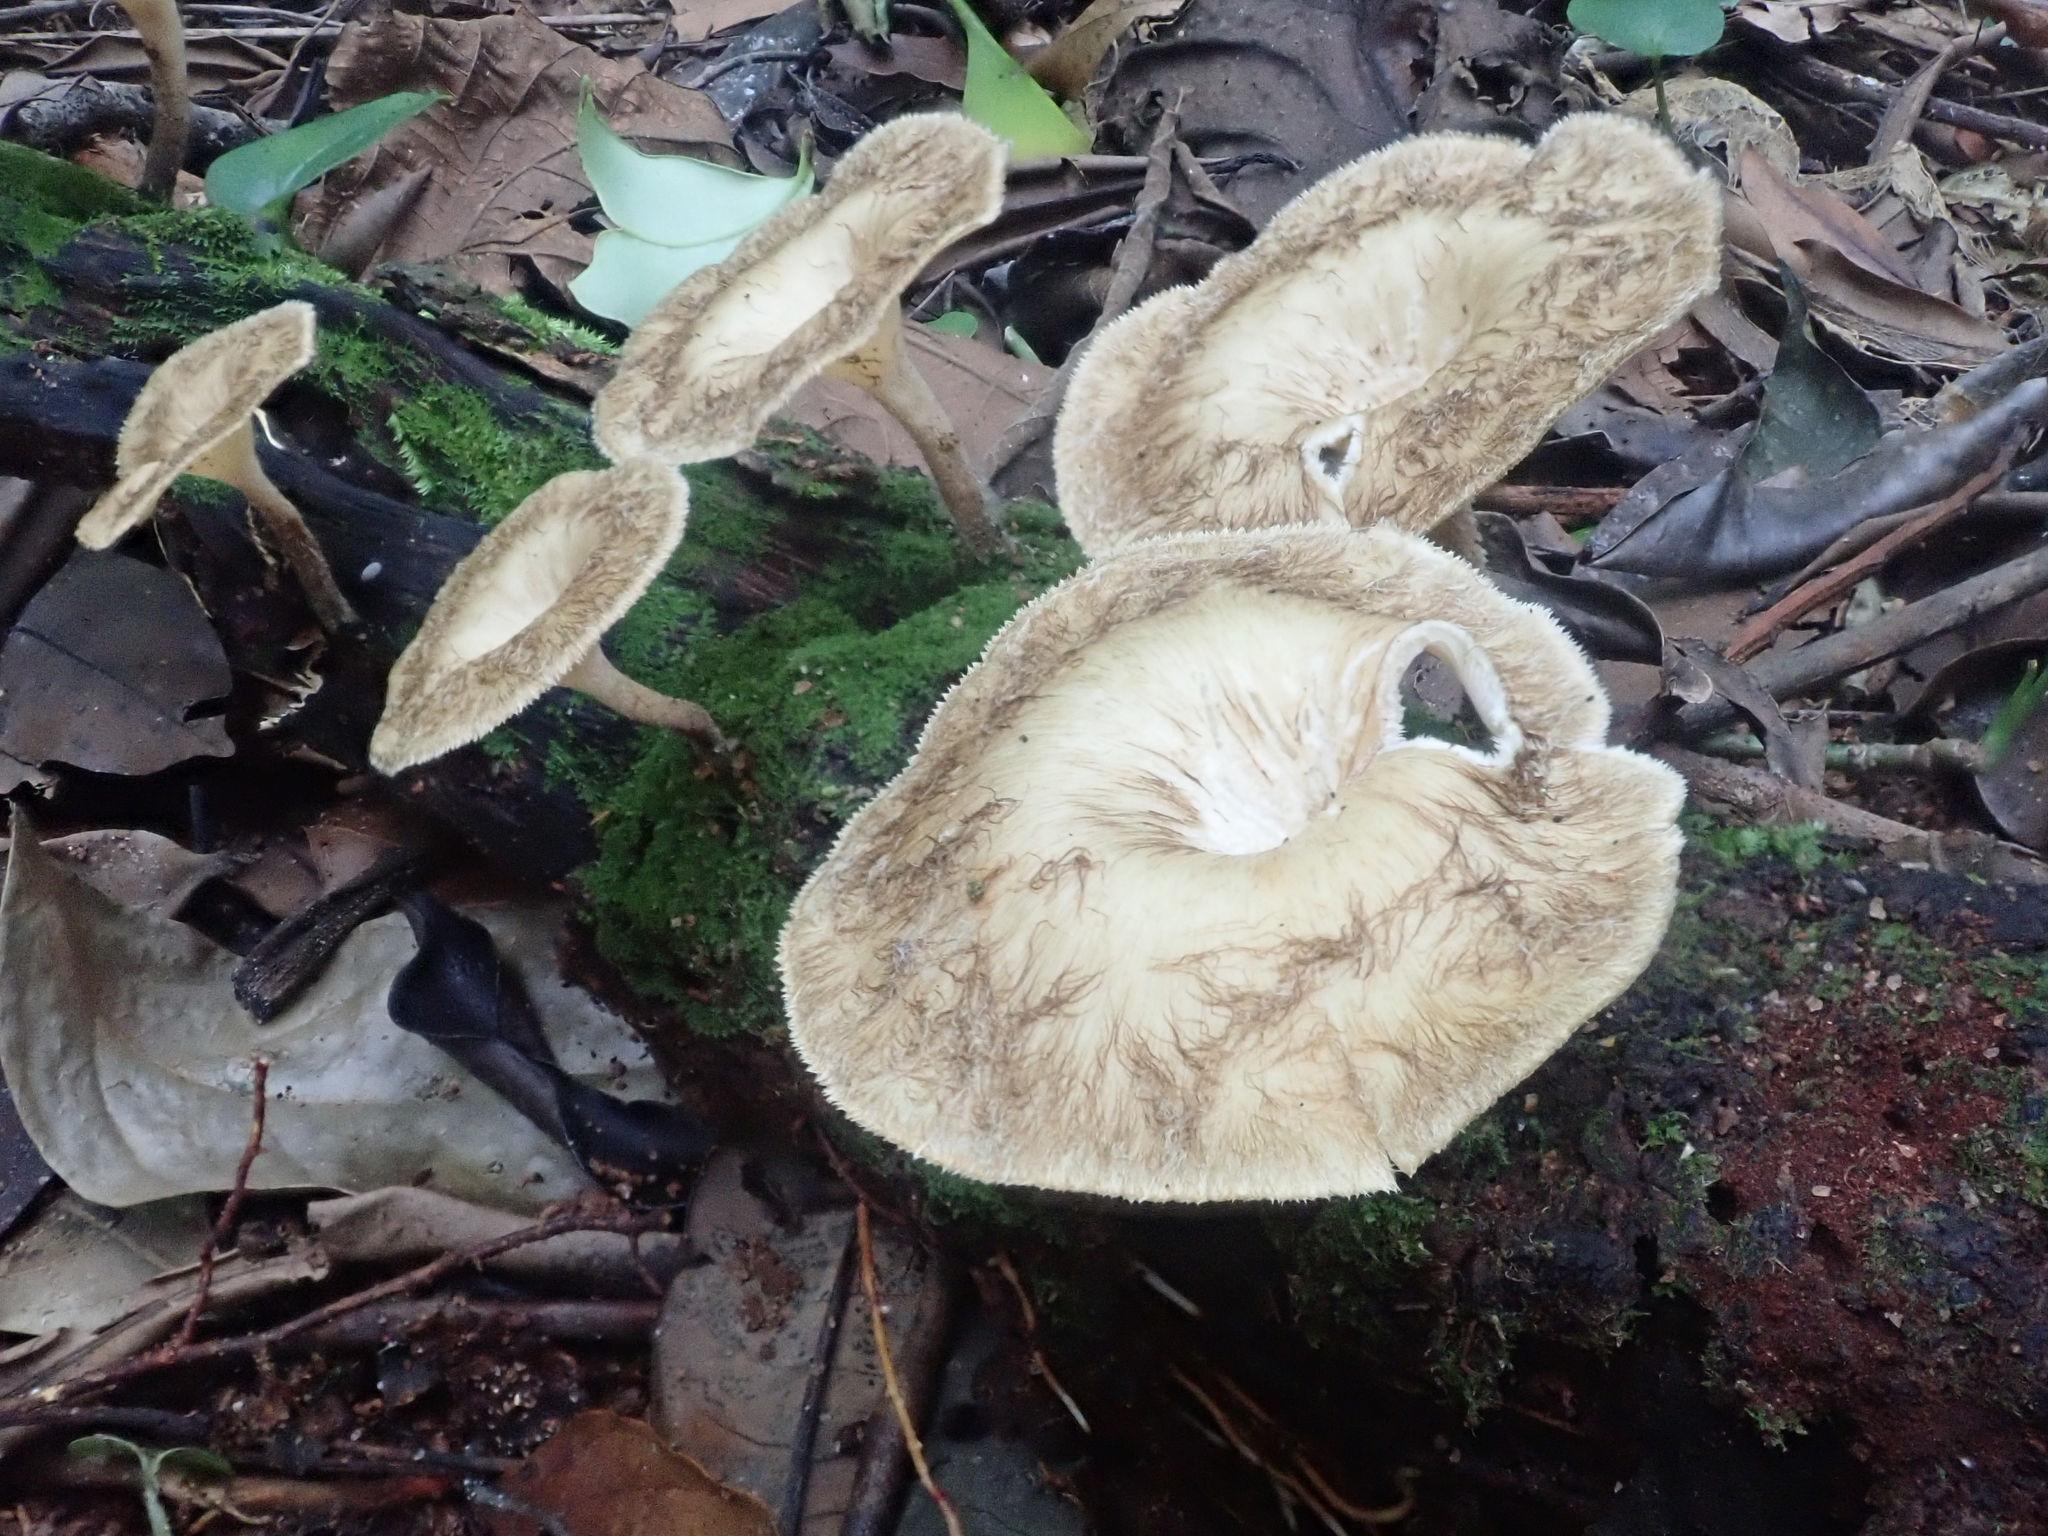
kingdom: Fungi
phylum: Basidiomycota
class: Agaricomycetes
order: Polyporales
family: Polyporaceae
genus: Lentinus
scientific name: Lentinus crinitus
